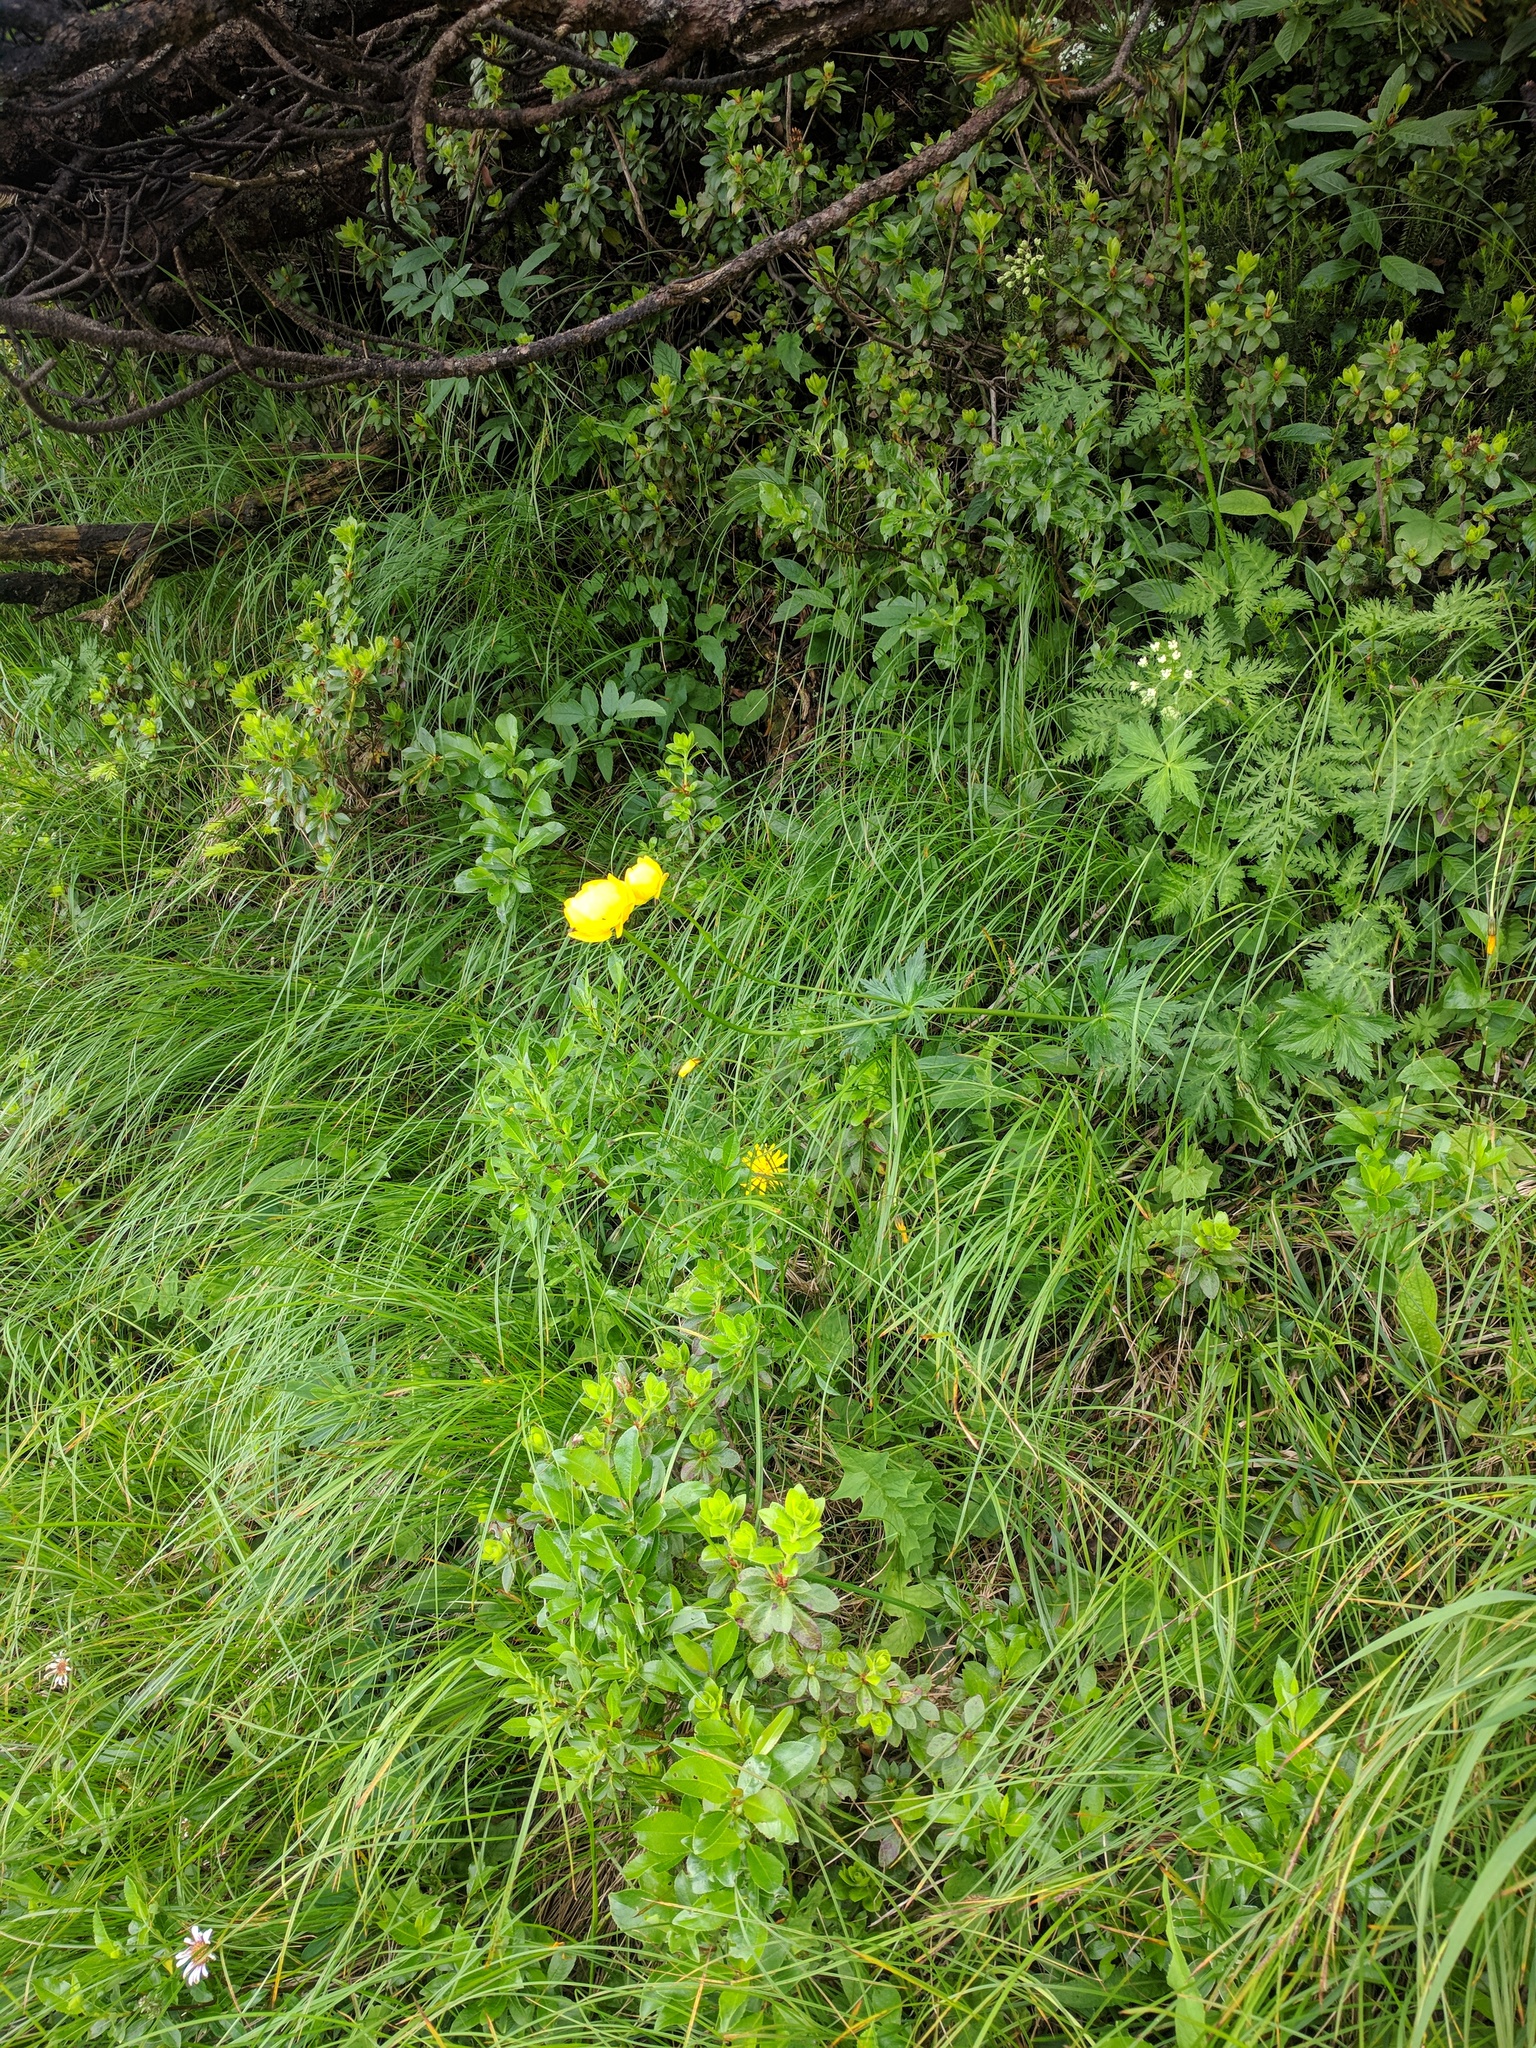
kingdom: Plantae
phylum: Tracheophyta
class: Magnoliopsida
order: Ranunculales
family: Ranunculaceae
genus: Trollius
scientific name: Trollius europaeus
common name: European globeflower
